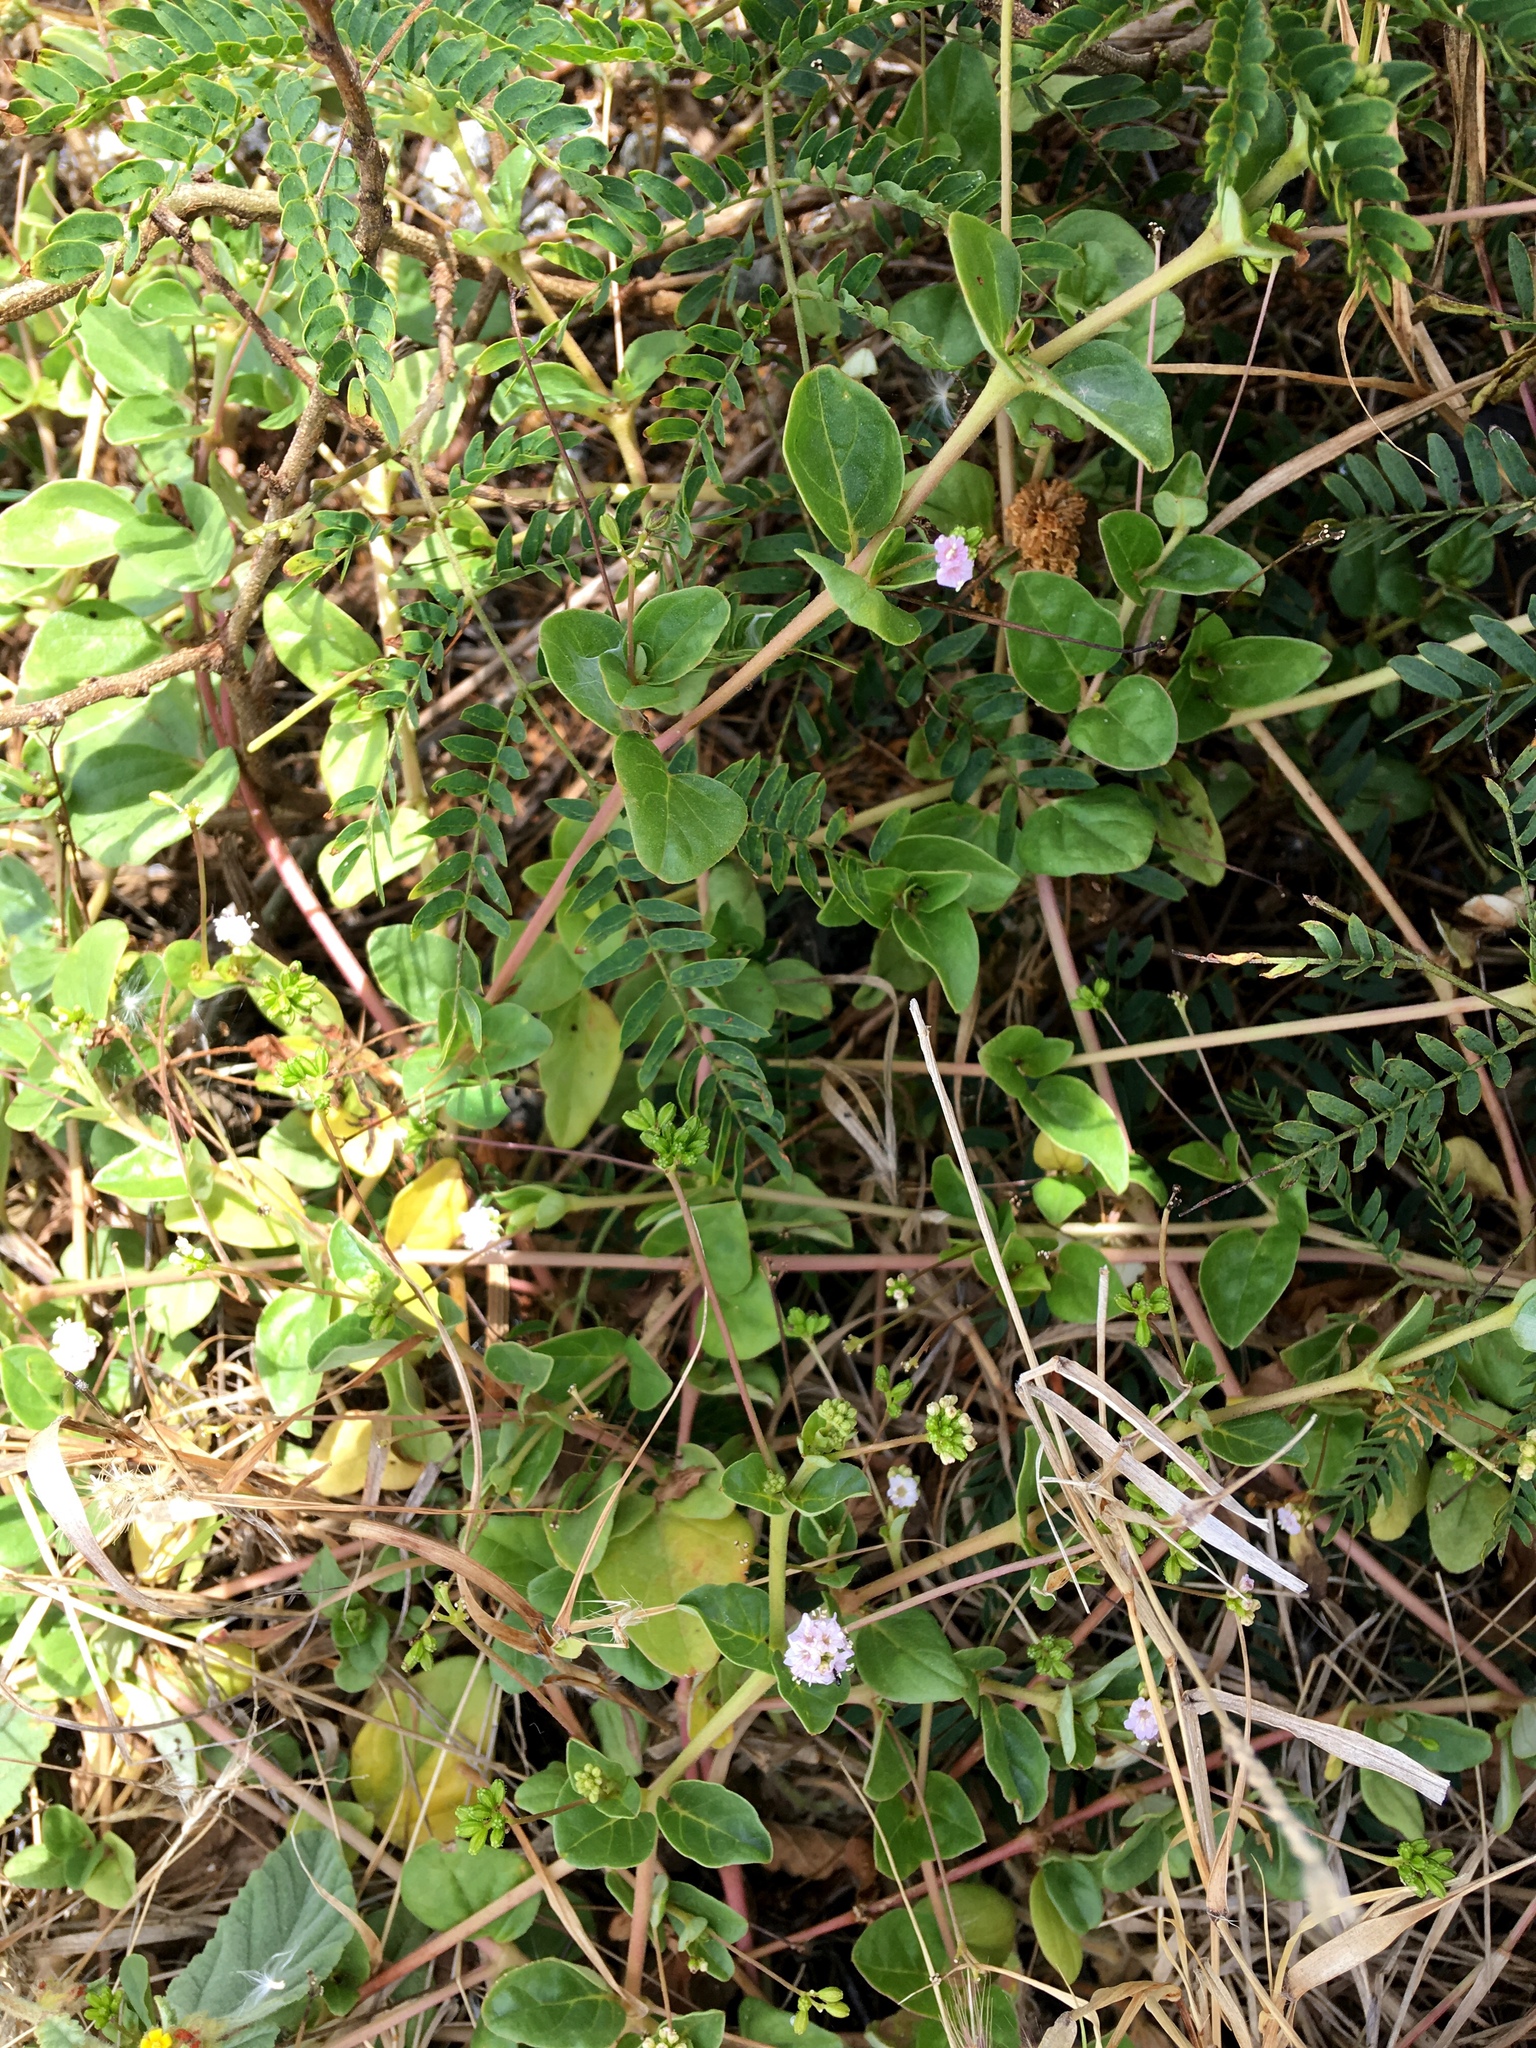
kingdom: Plantae
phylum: Tracheophyta
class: Magnoliopsida
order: Solanales
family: Convolvulaceae
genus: Jacquemontia
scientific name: Jacquemontia sandwicensis
